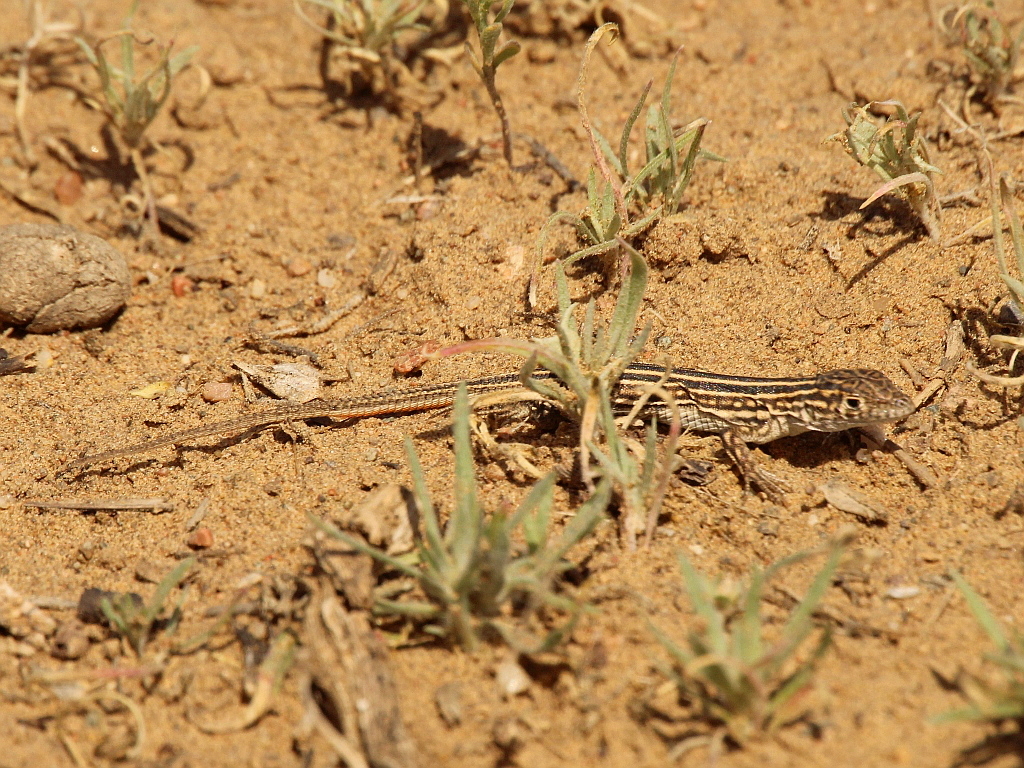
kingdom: Animalia
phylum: Chordata
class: Squamata
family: Lacertidae
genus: Eremias
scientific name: Eremias velox
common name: Central asian racerunner
